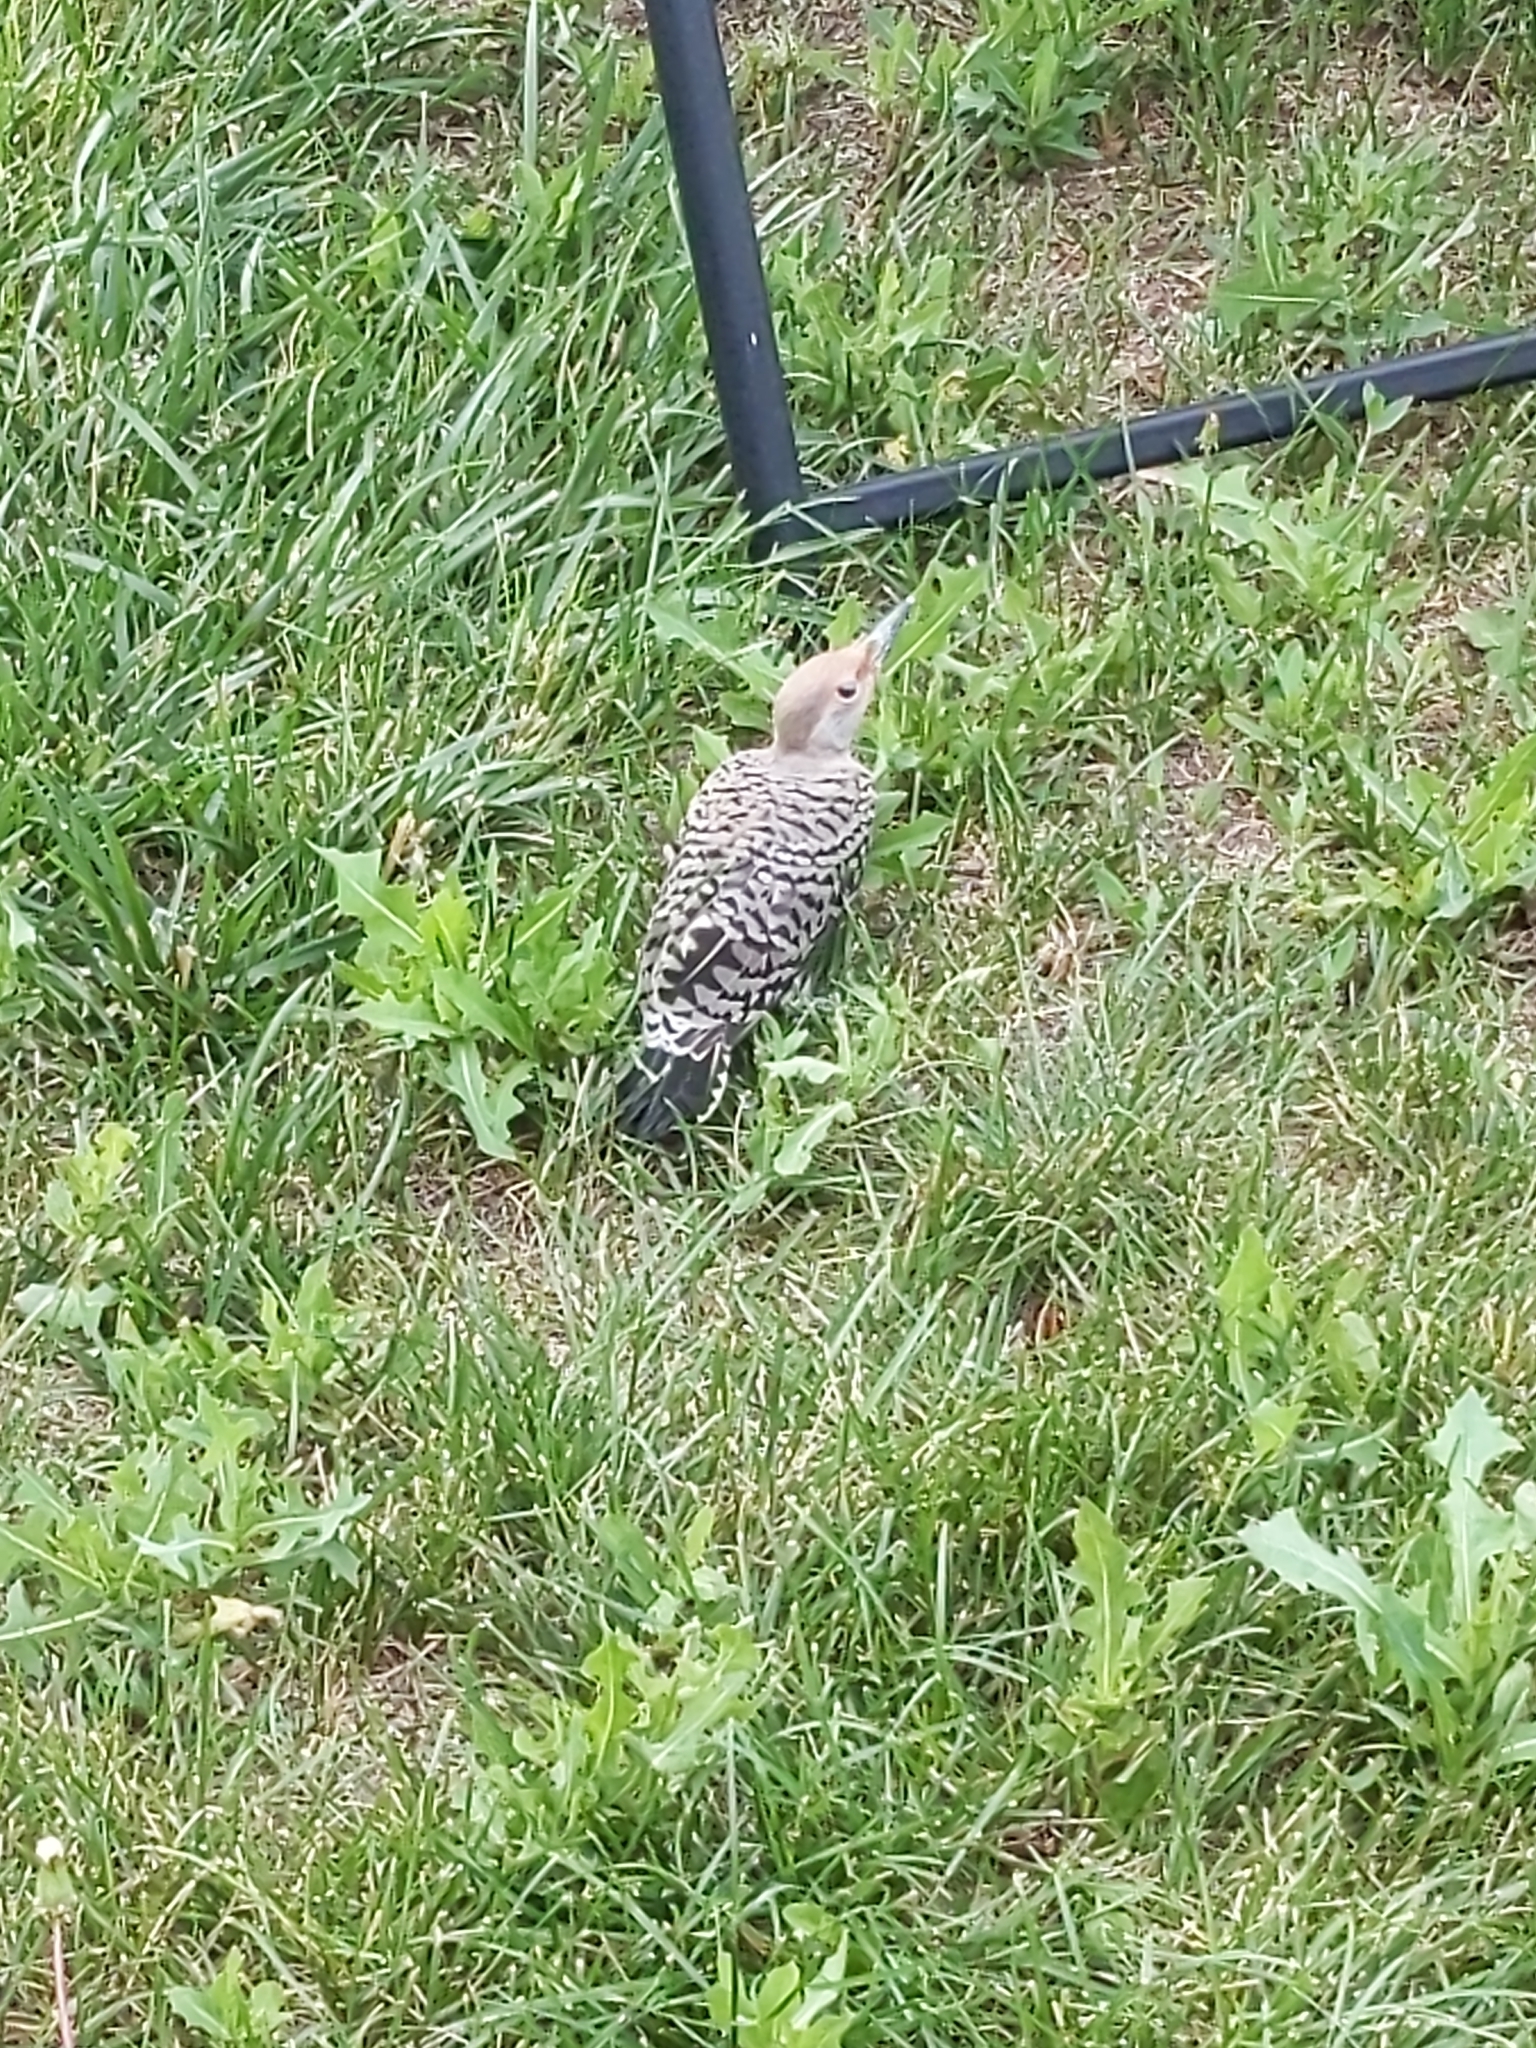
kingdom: Animalia
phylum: Chordata
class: Aves
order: Piciformes
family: Picidae
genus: Colaptes
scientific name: Colaptes auratus
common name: Northern flicker
